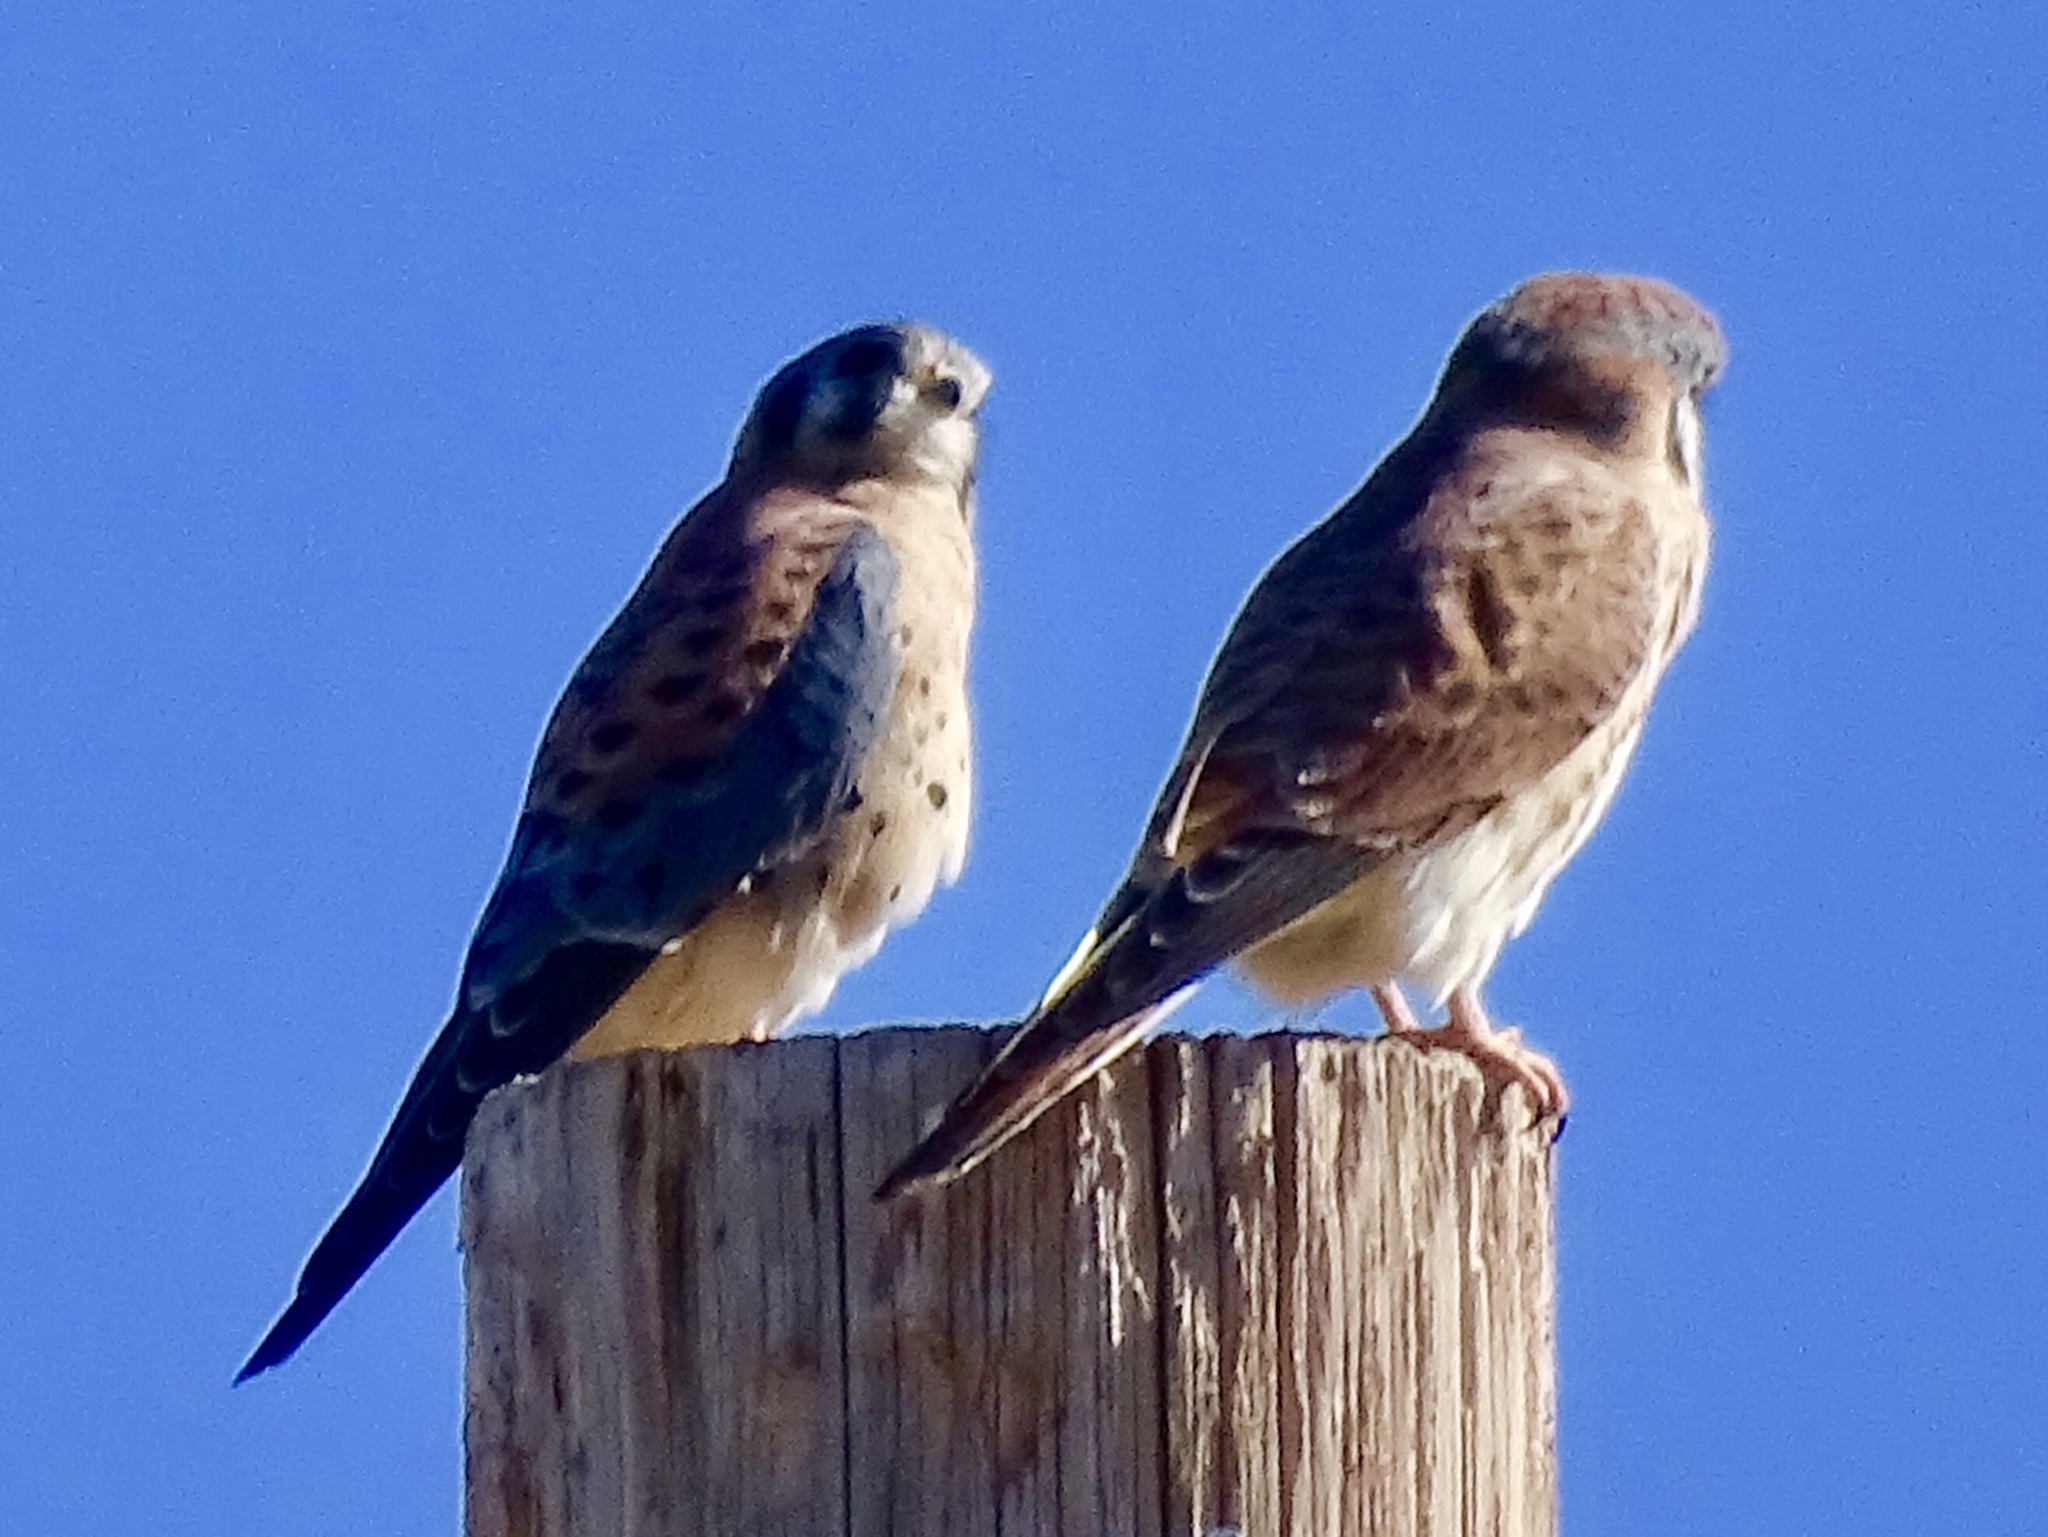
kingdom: Animalia
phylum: Chordata
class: Aves
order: Falconiformes
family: Falconidae
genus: Falco
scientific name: Falco sparverius
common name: American kestrel
